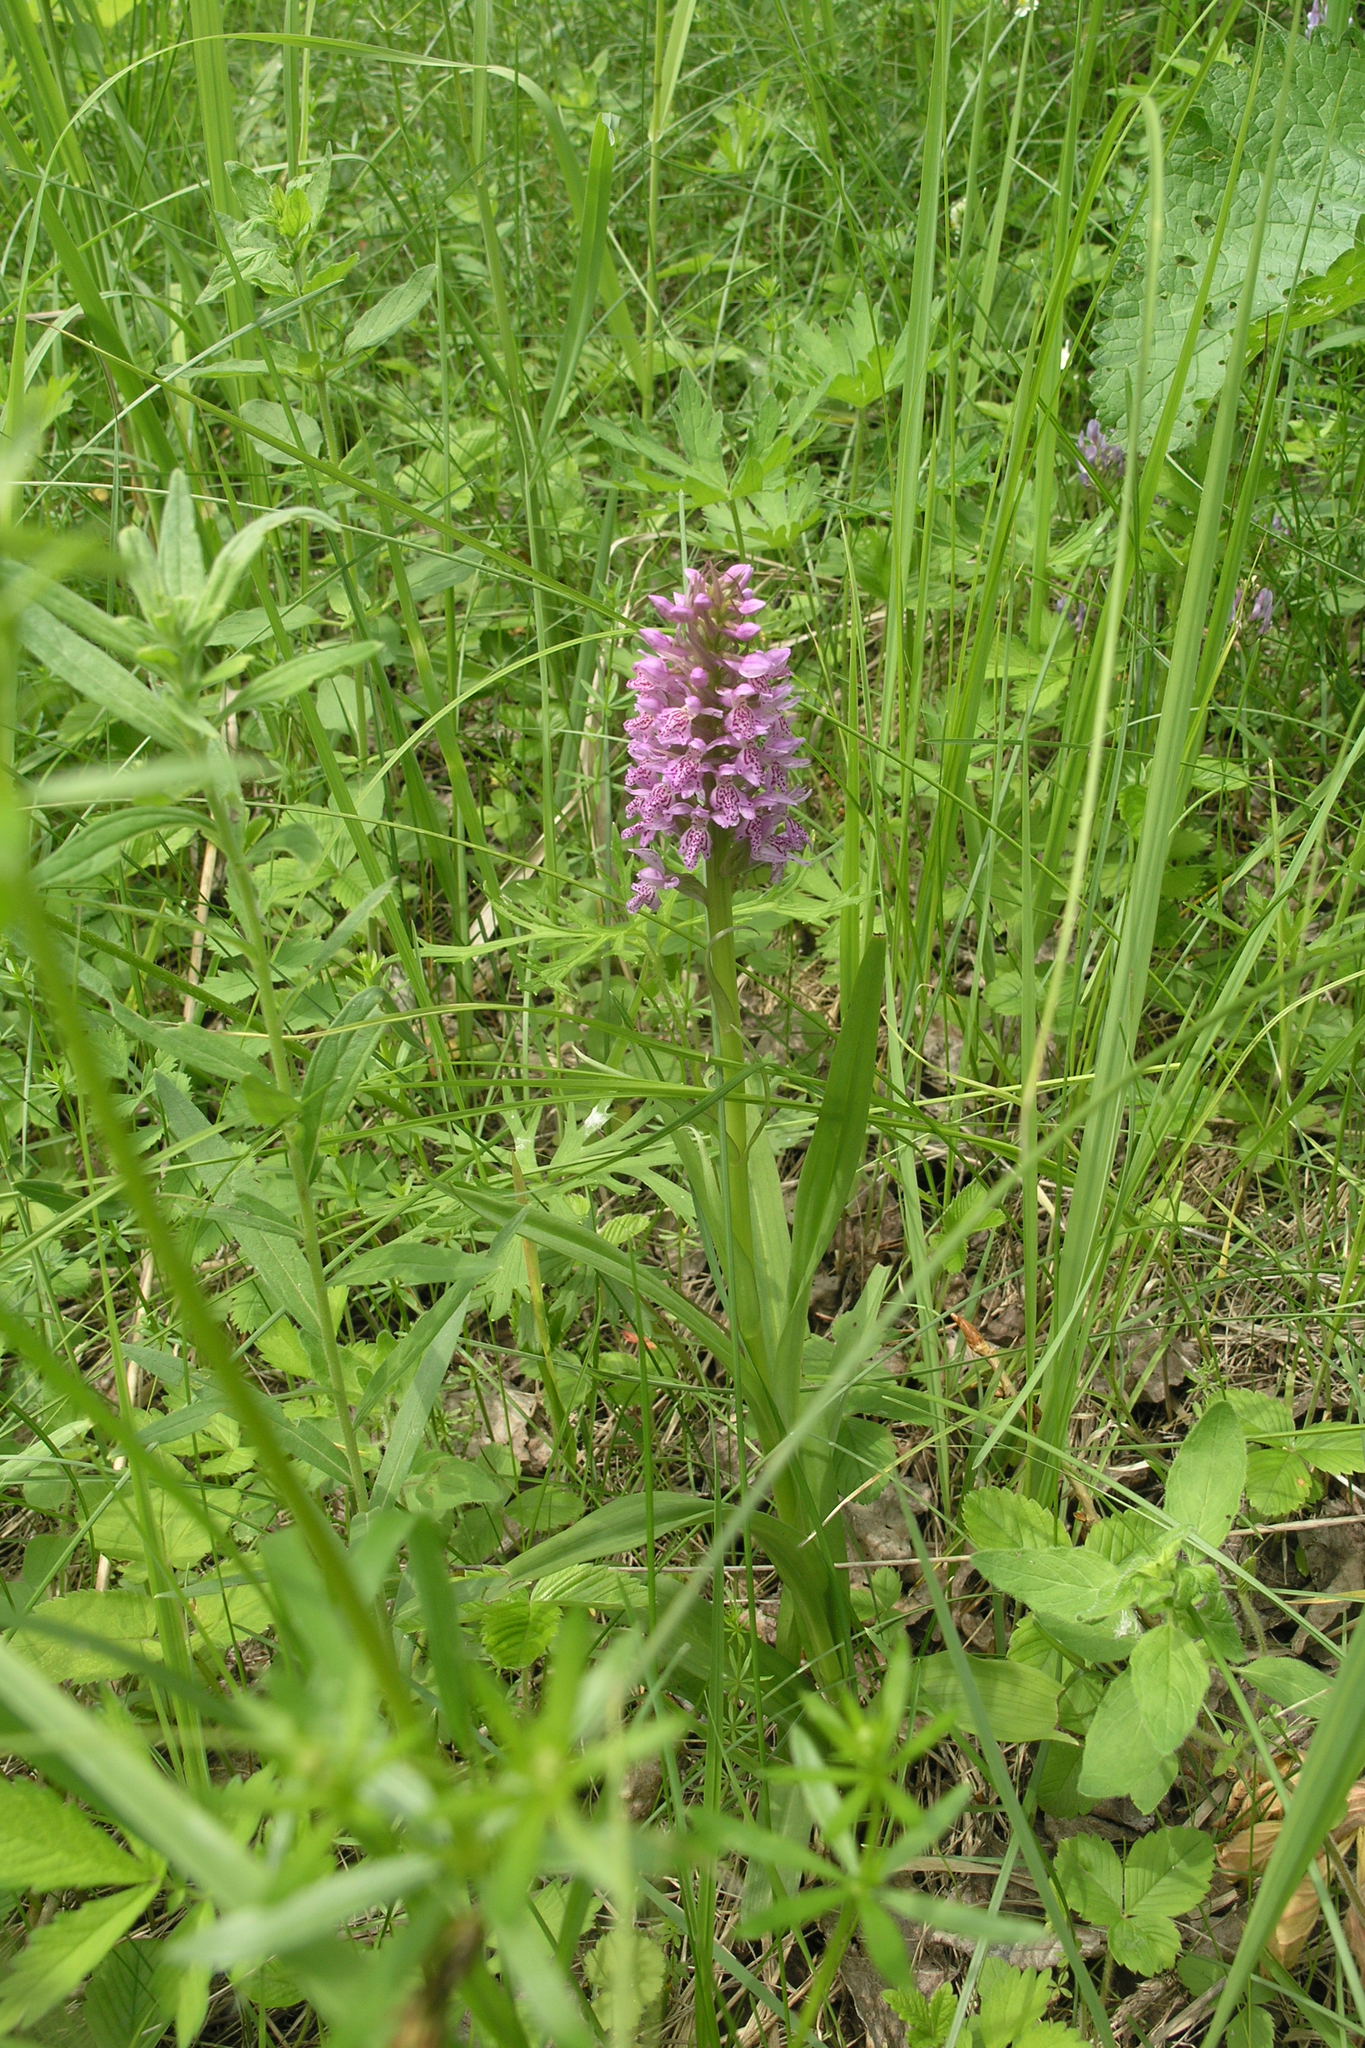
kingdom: Plantae
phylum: Tracheophyta
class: Liliopsida
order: Asparagales
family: Orchidaceae
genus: Dactylorhiza
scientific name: Dactylorhiza sibirica
